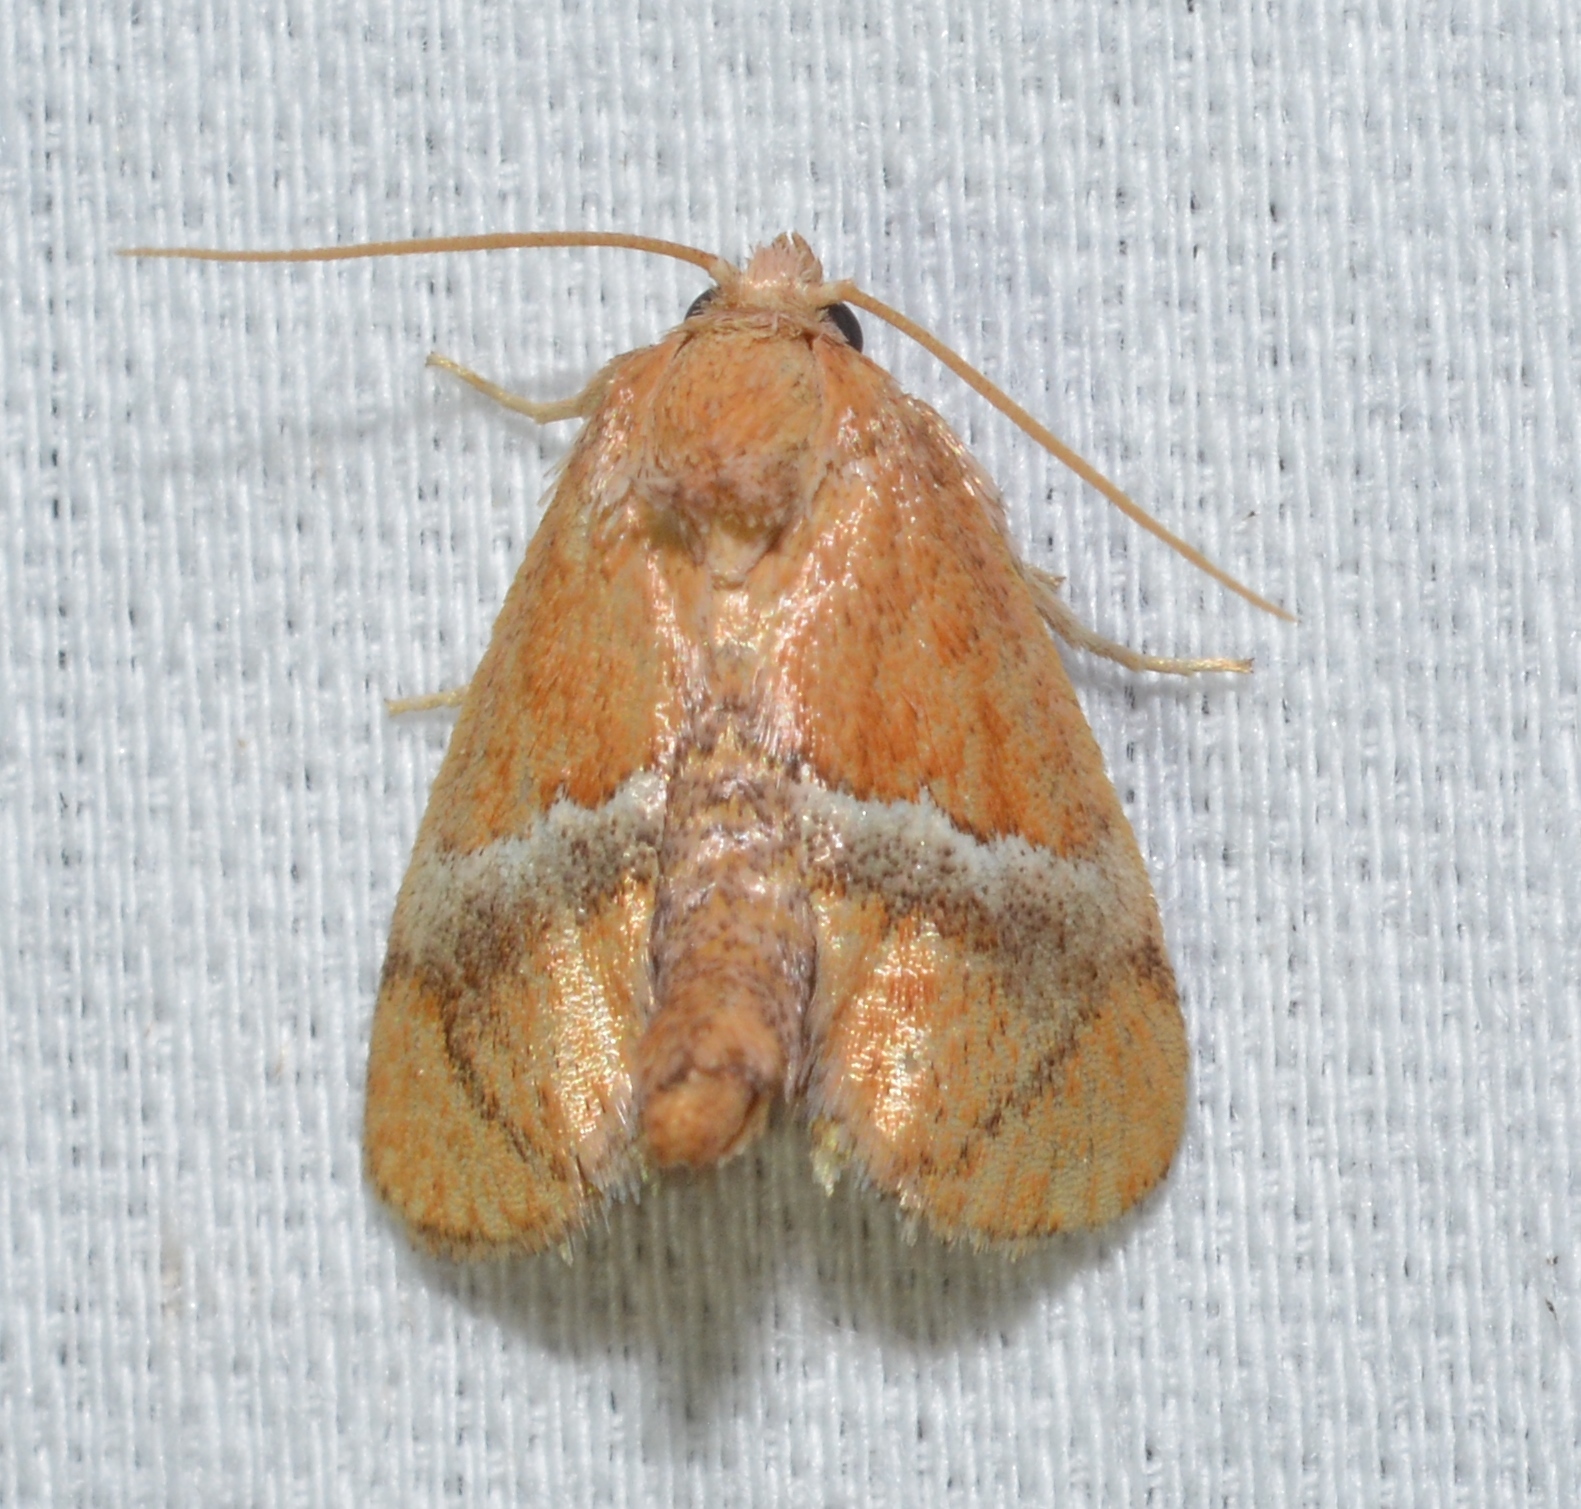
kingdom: Animalia
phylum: Arthropoda
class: Insecta
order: Lepidoptera
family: Limacodidae
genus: Lithacodes
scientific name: Lithacodes fasciola
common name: Yellow-shouldered slug moth
